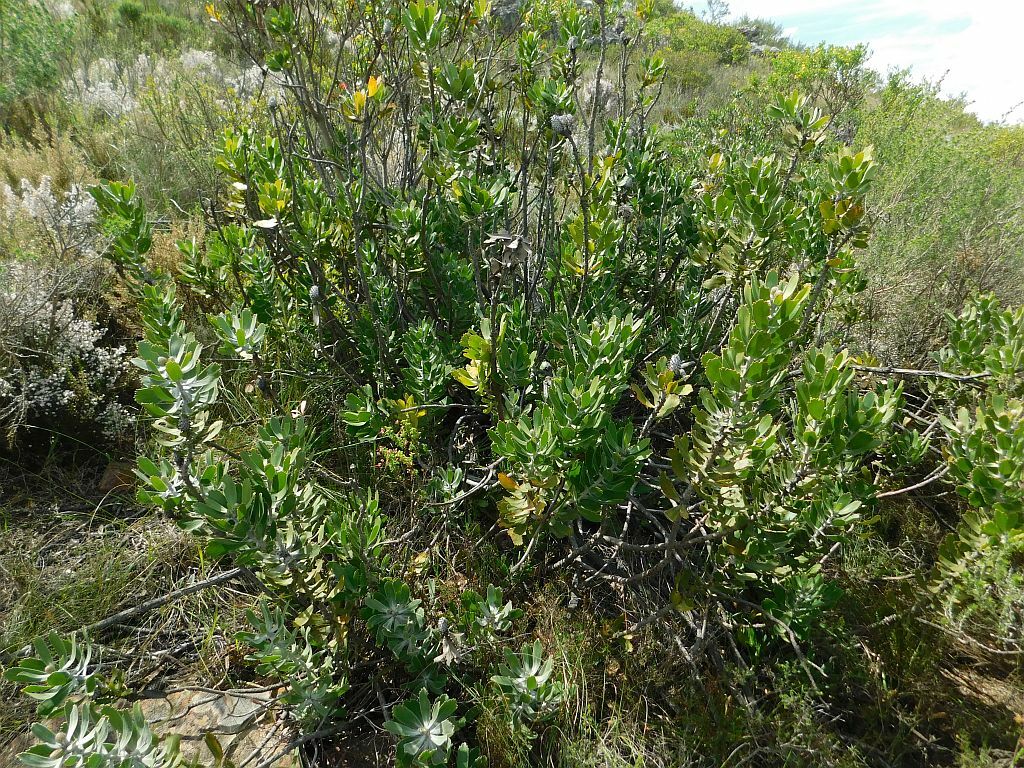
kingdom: Plantae
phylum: Tracheophyta
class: Magnoliopsida
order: Proteales
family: Proteaceae
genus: Leucospermum
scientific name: Leucospermum cuneiforme
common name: Common pincushion
